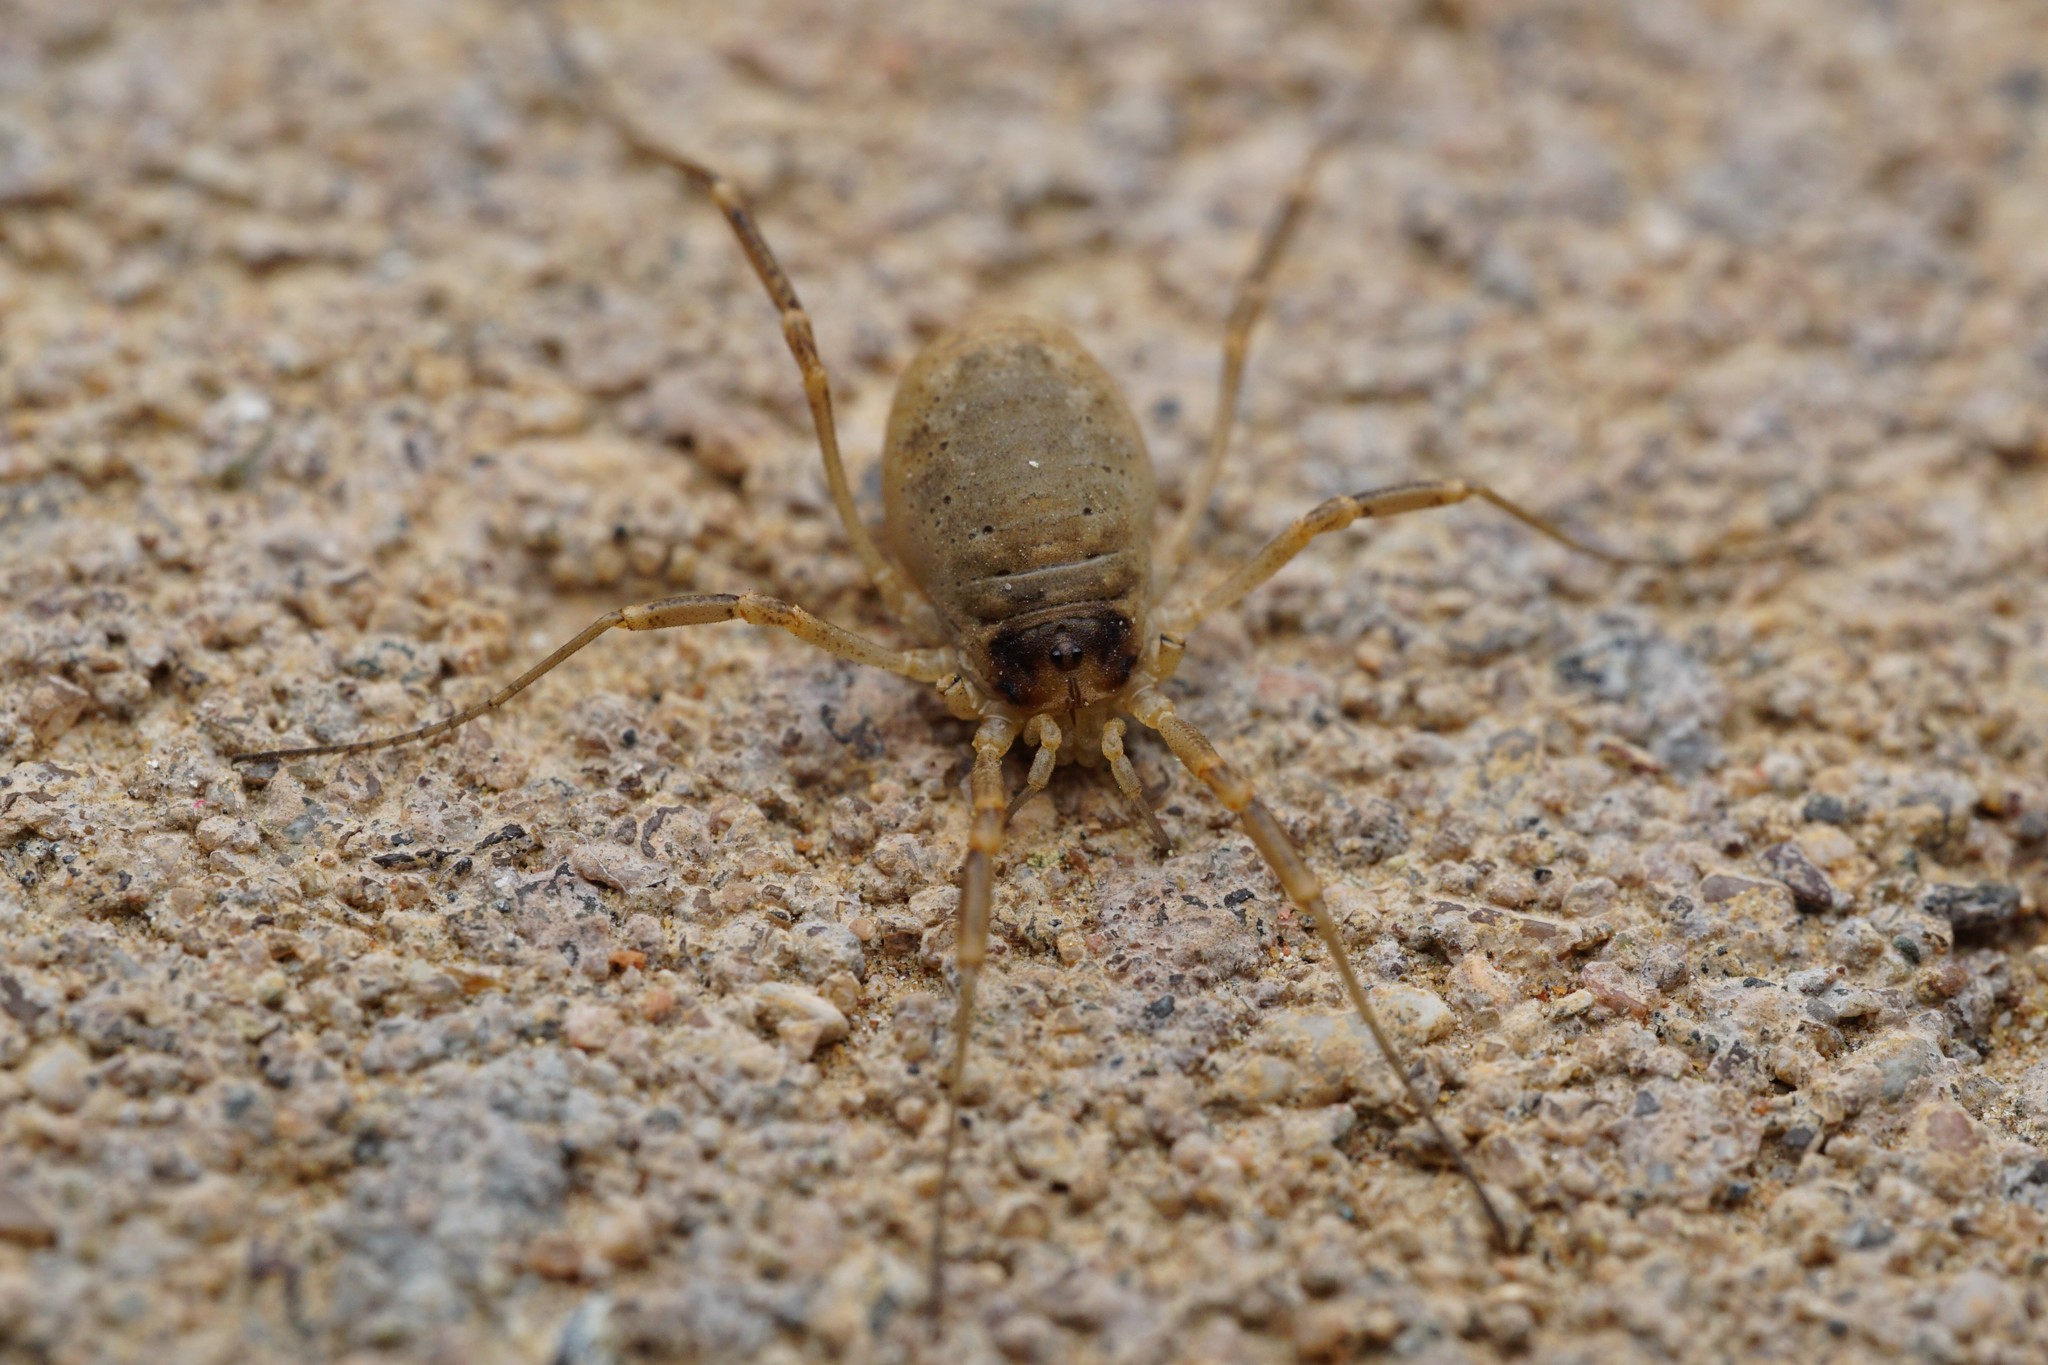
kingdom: Animalia
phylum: Arthropoda
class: Arachnida
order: Opiliones
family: Globipedidae
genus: Eurybunus
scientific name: Eurybunus pallidus
